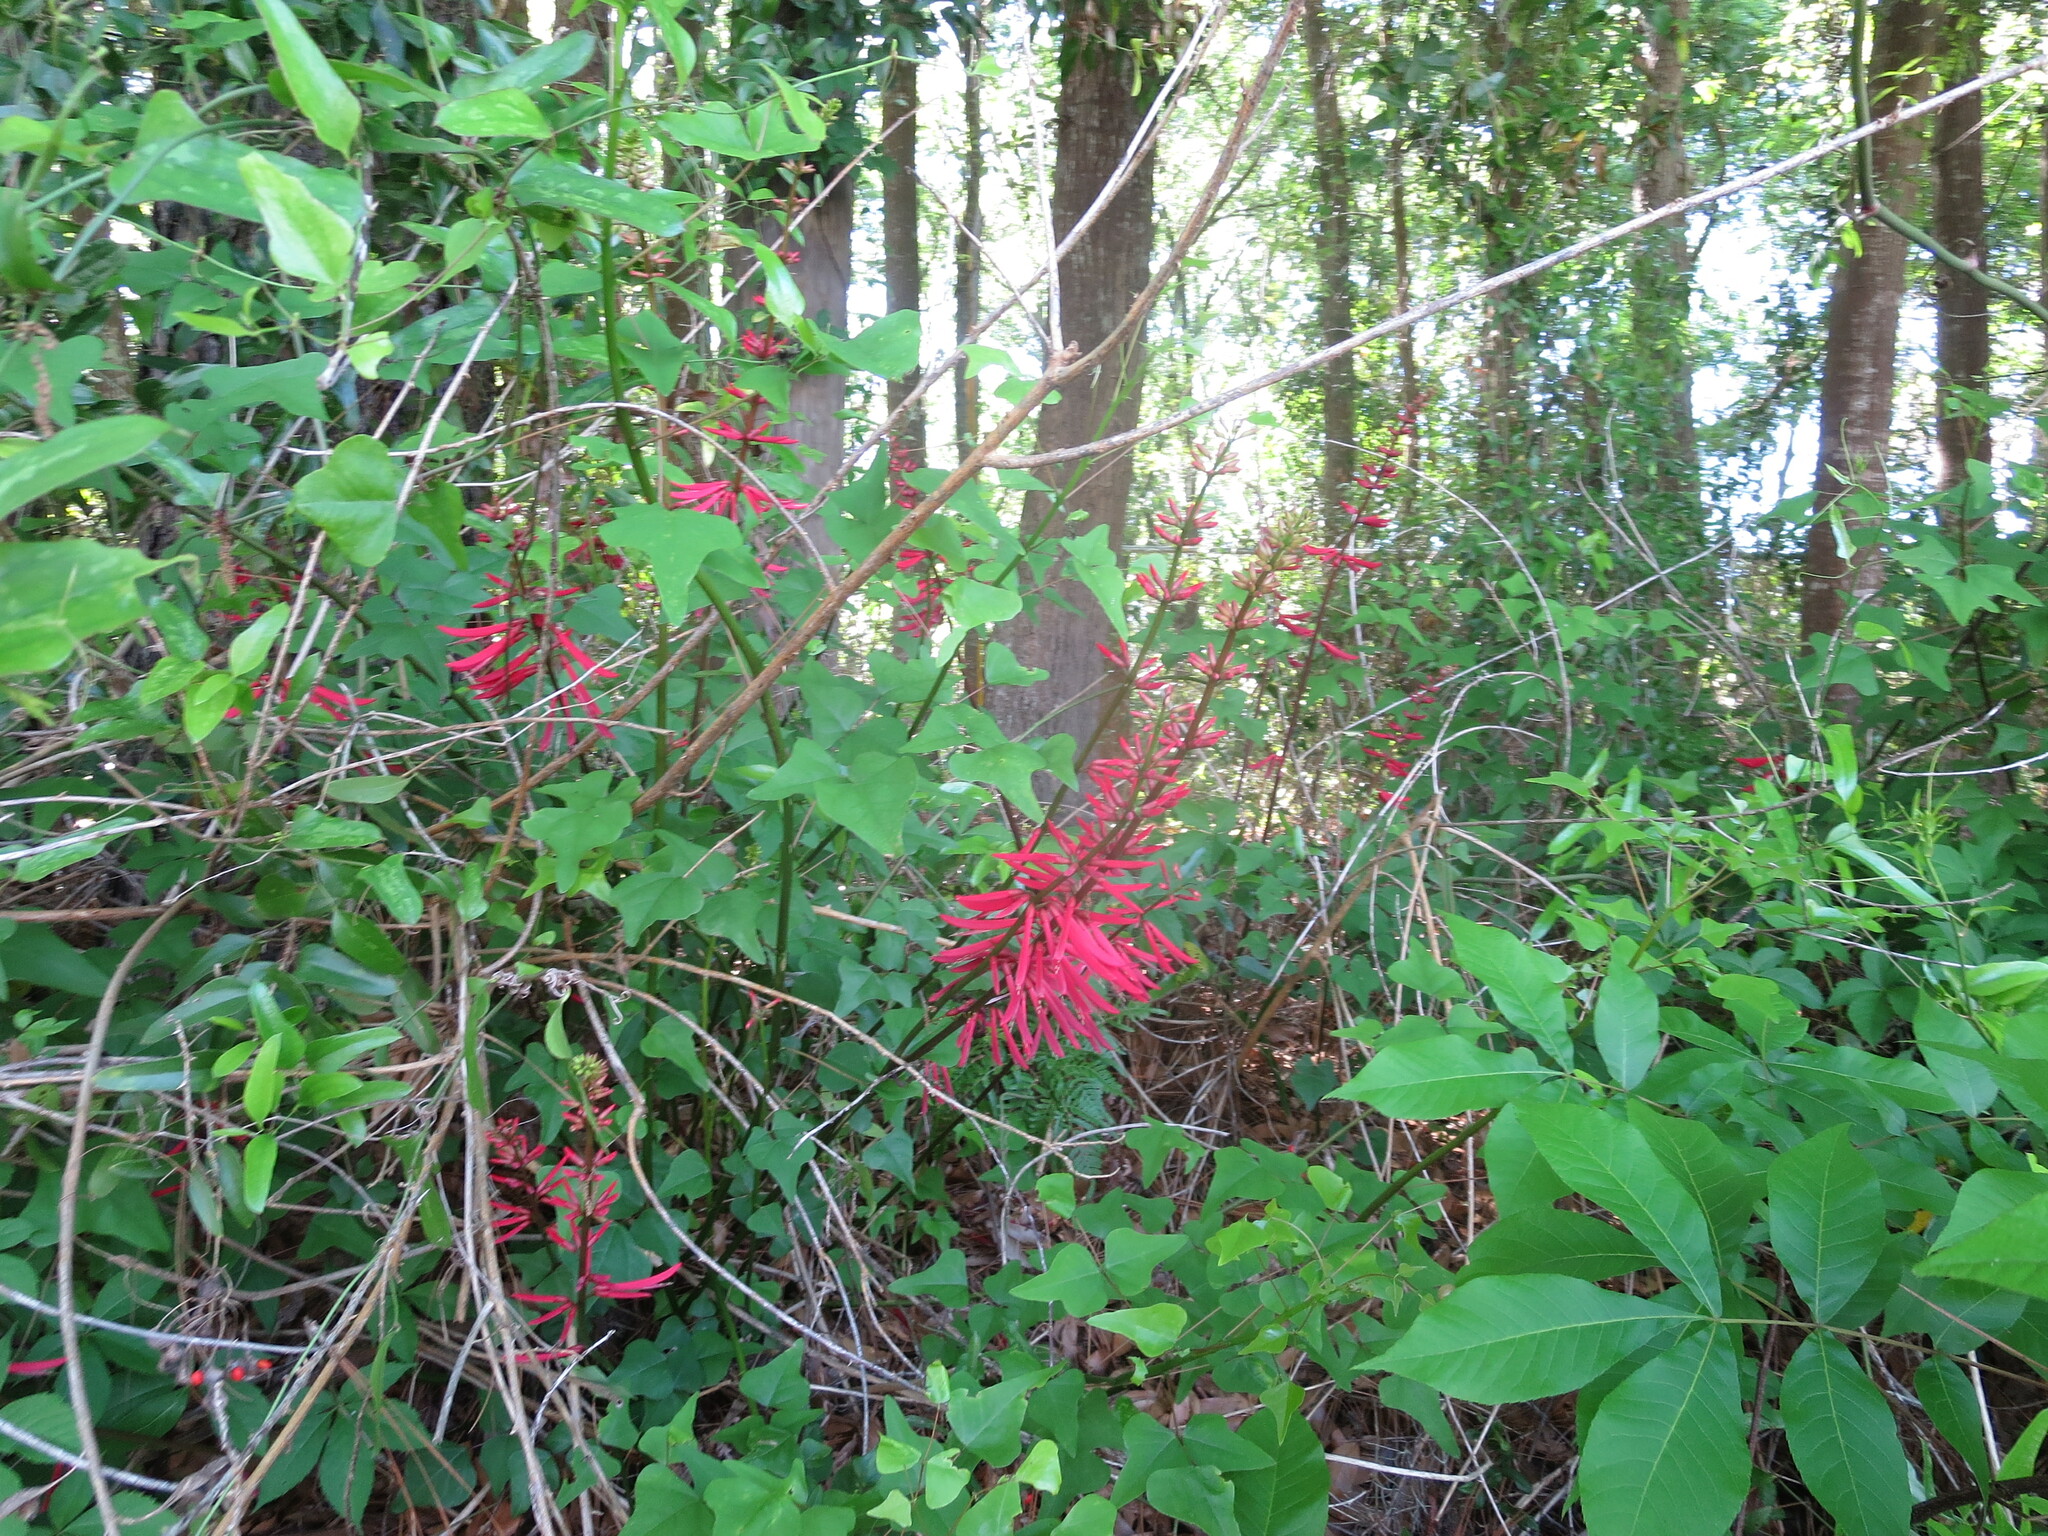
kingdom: Plantae
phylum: Tracheophyta
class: Magnoliopsida
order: Fabales
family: Fabaceae
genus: Erythrina
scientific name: Erythrina herbacea
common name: Coral-bean
